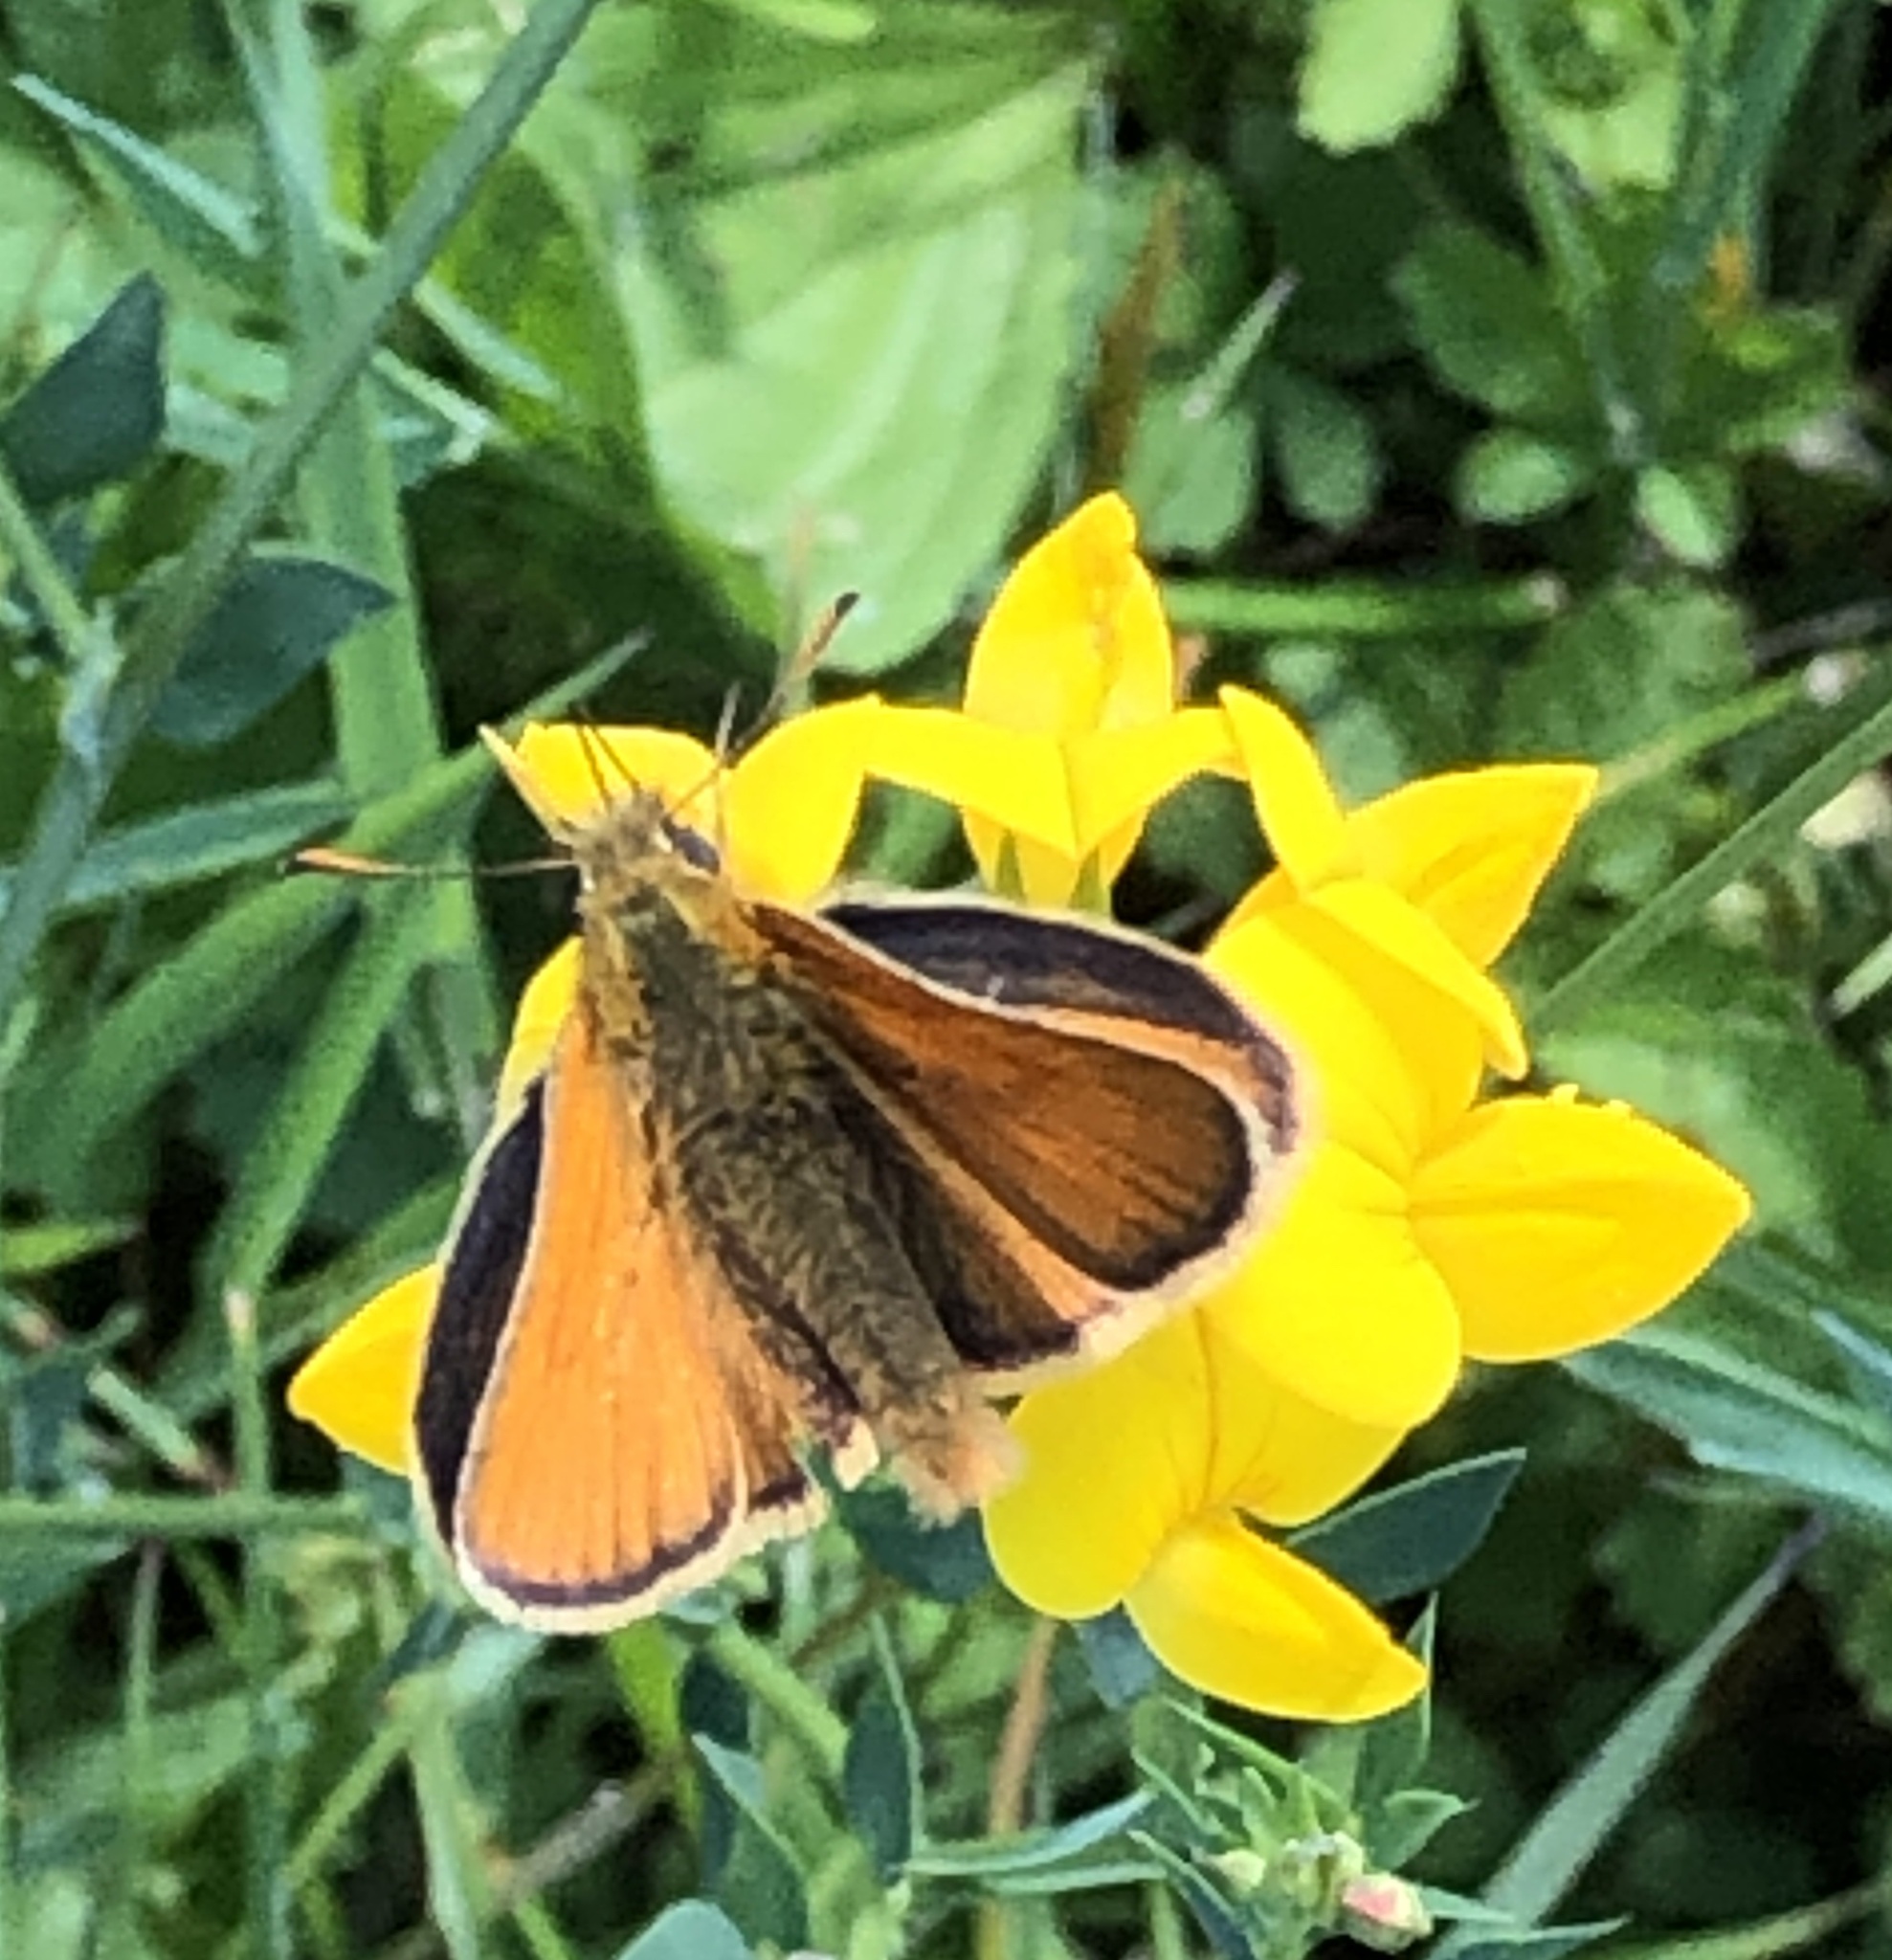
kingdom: Animalia
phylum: Arthropoda
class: Insecta
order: Lepidoptera
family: Hesperiidae
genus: Thymelicus
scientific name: Thymelicus sylvestris
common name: Small skipper
